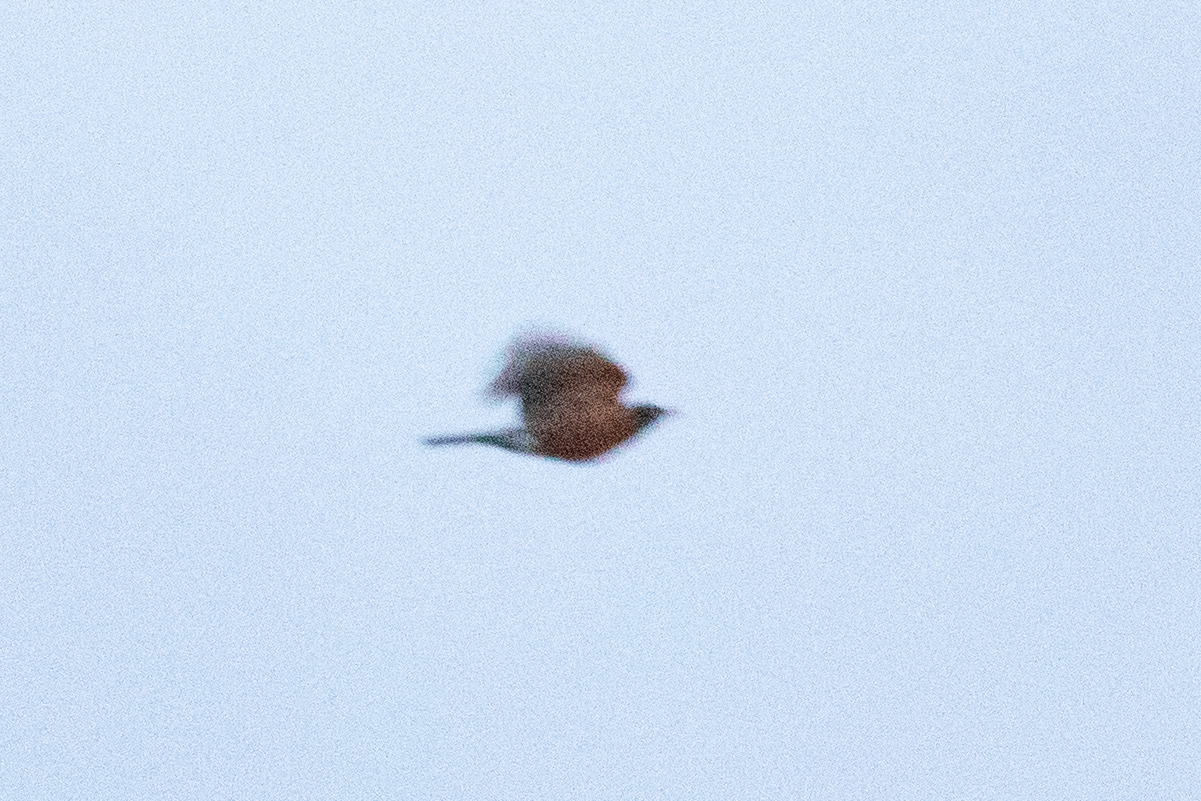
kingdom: Animalia
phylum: Chordata
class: Aves
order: Passeriformes
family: Turdidae
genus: Turdus
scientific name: Turdus migratorius
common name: American robin
